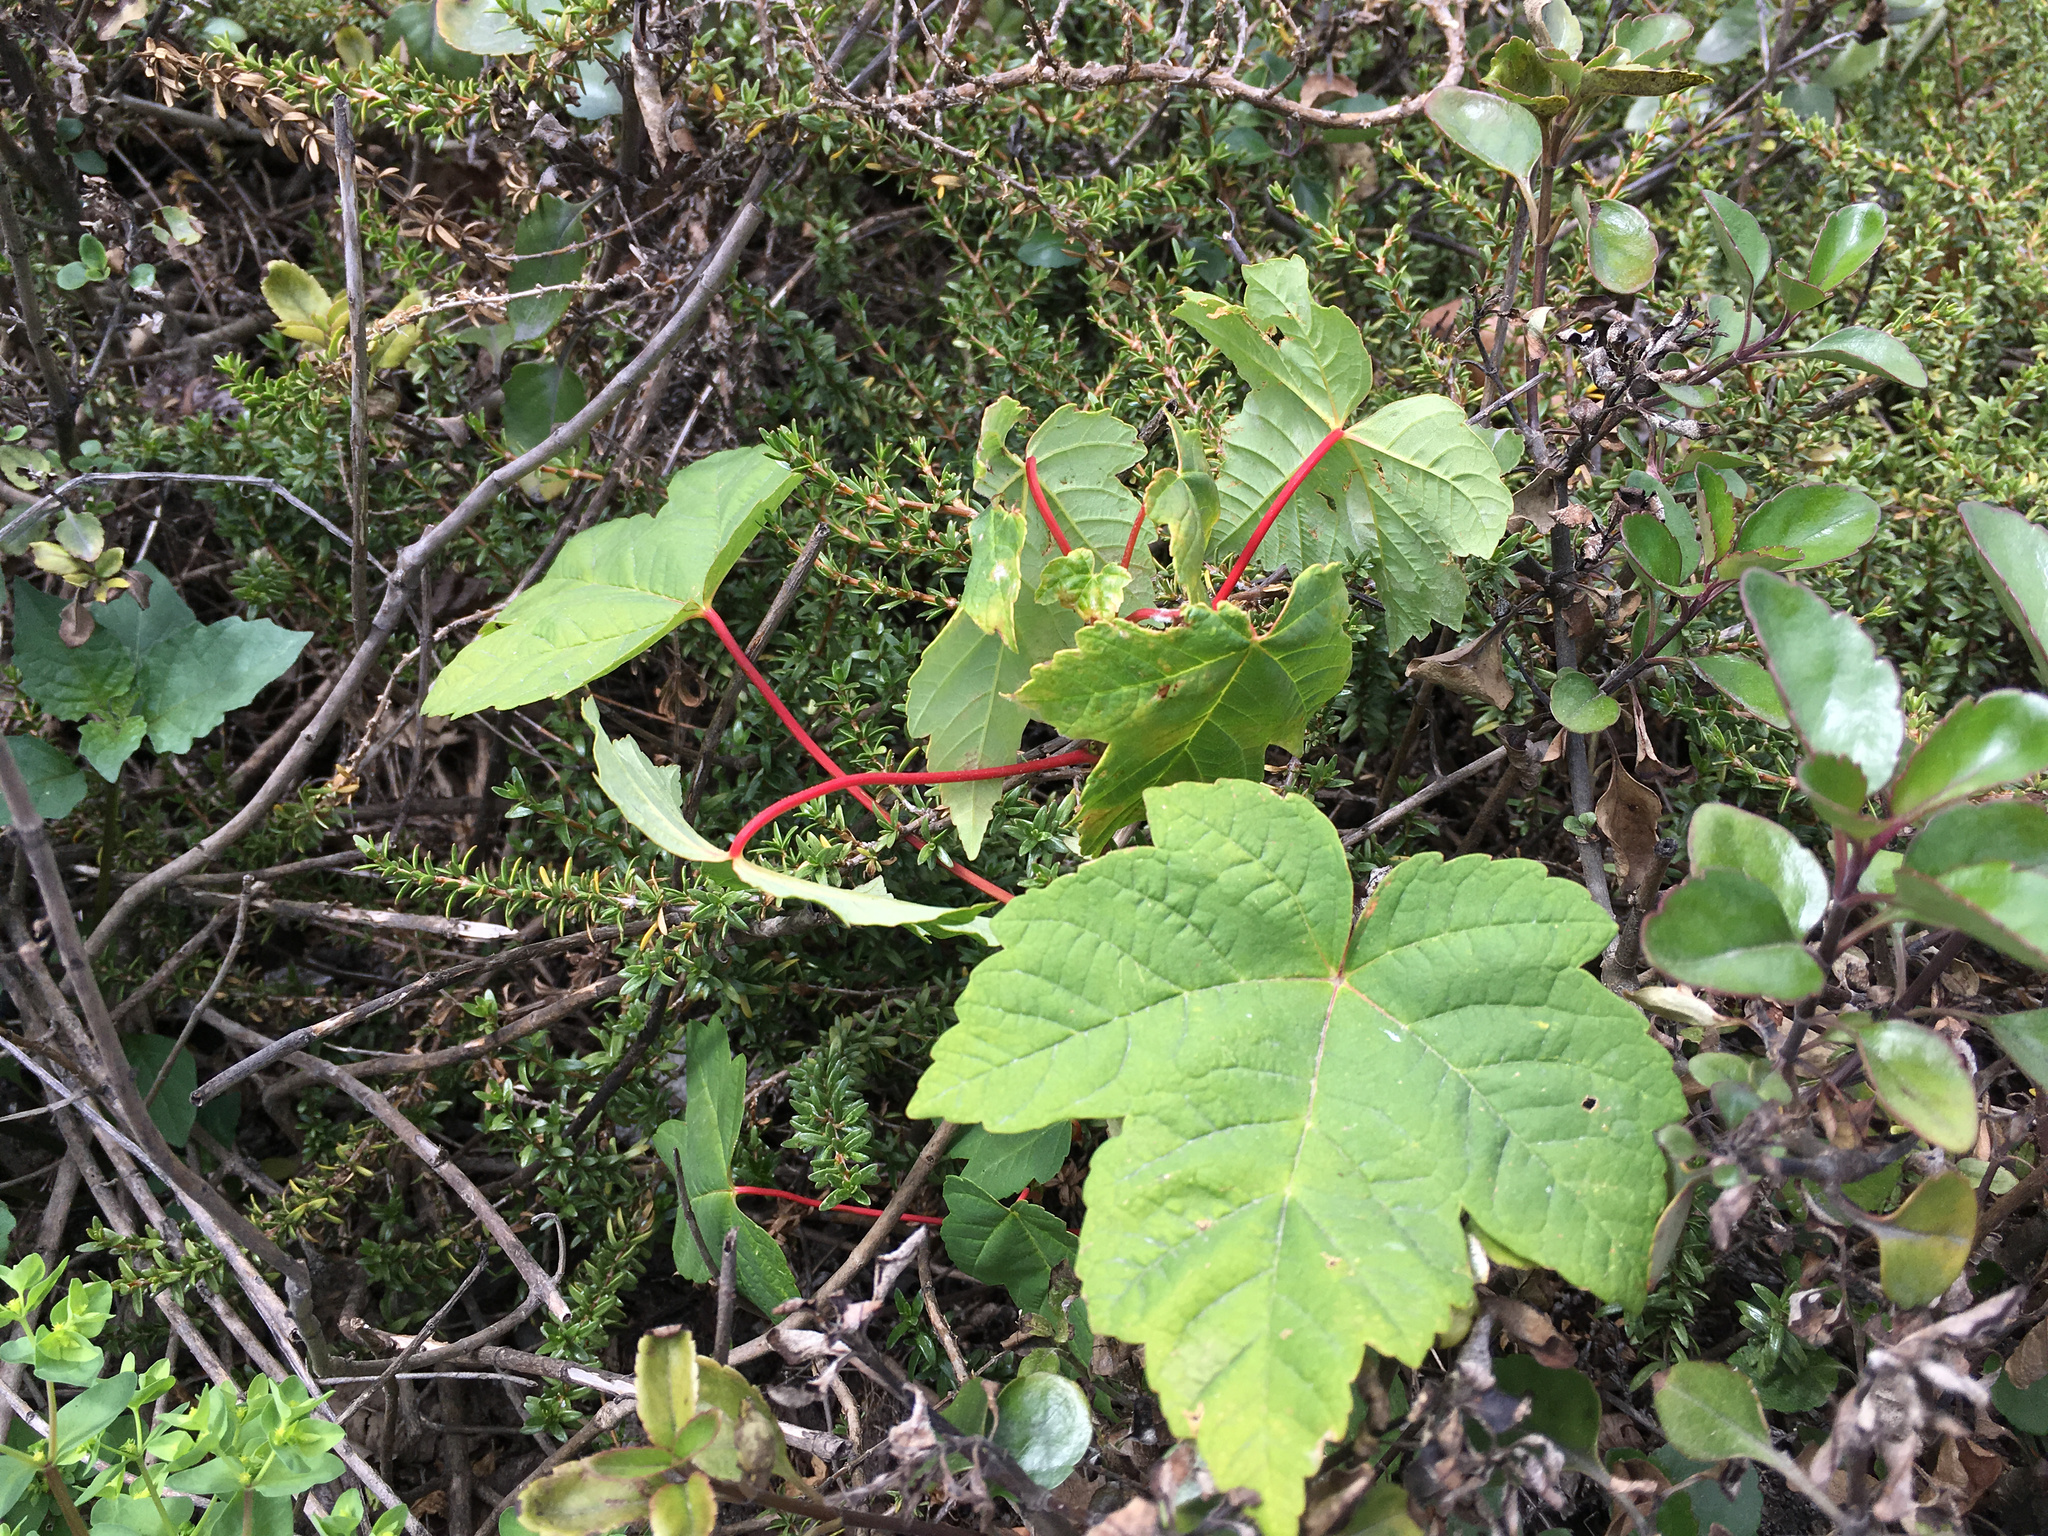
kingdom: Plantae
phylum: Tracheophyta
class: Magnoliopsida
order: Sapindales
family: Sapindaceae
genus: Acer
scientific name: Acer pseudoplatanus
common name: Sycamore
